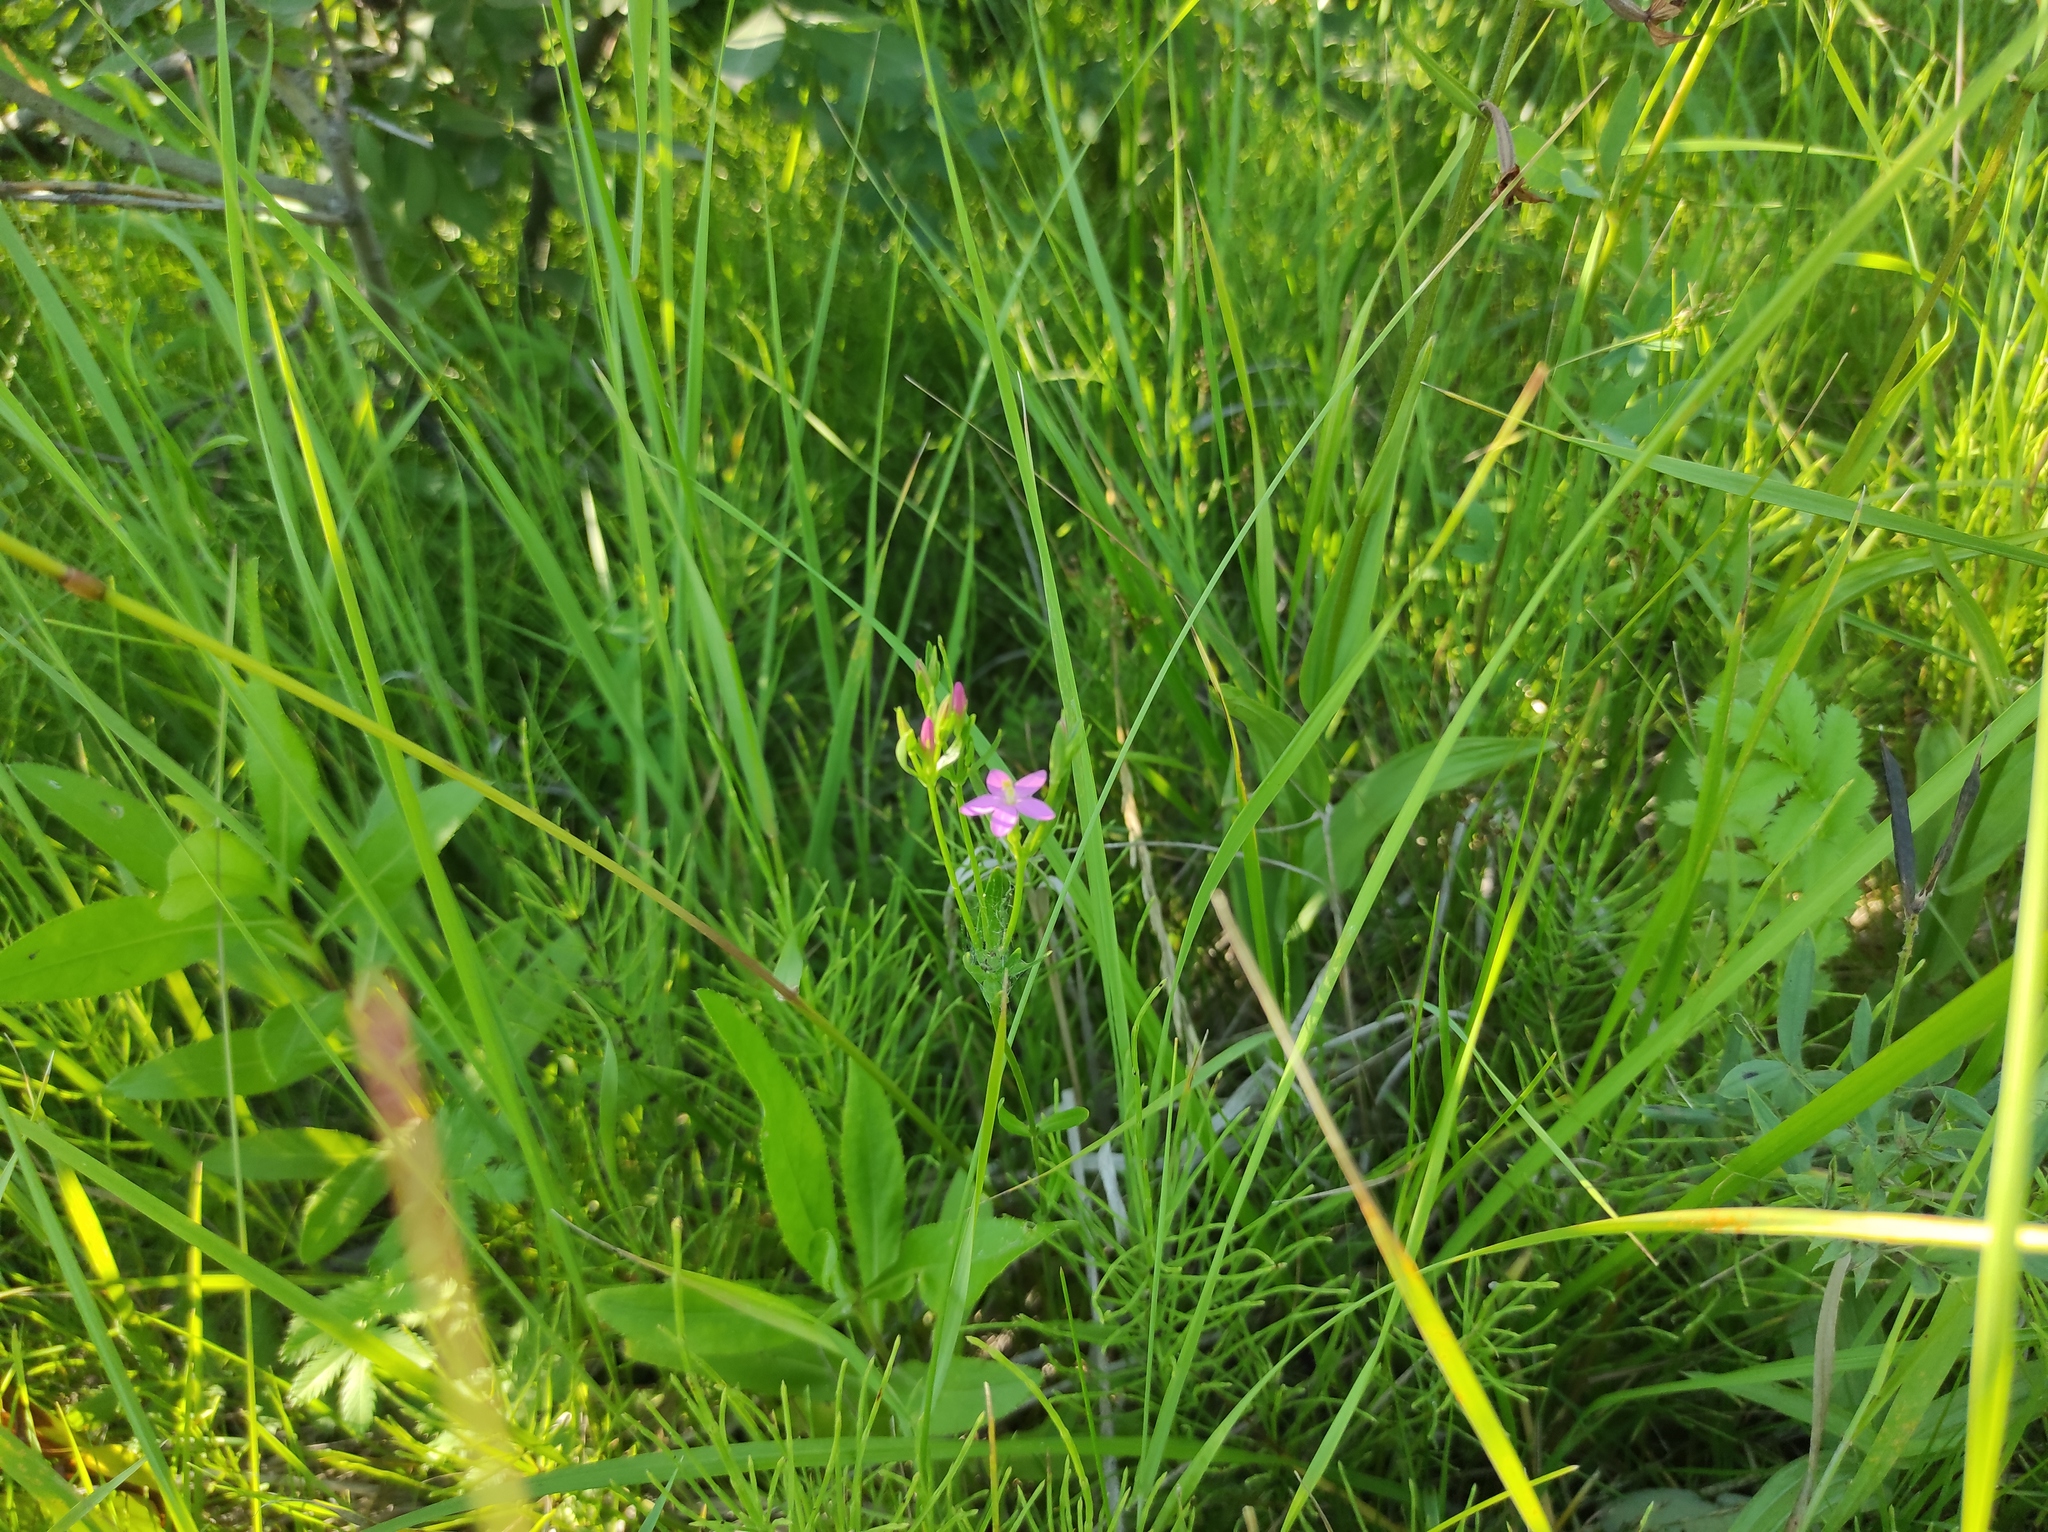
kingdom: Plantae
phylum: Tracheophyta
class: Magnoliopsida
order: Gentianales
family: Gentianaceae
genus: Centaurium
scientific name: Centaurium pulchellum
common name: Lesser centaury
